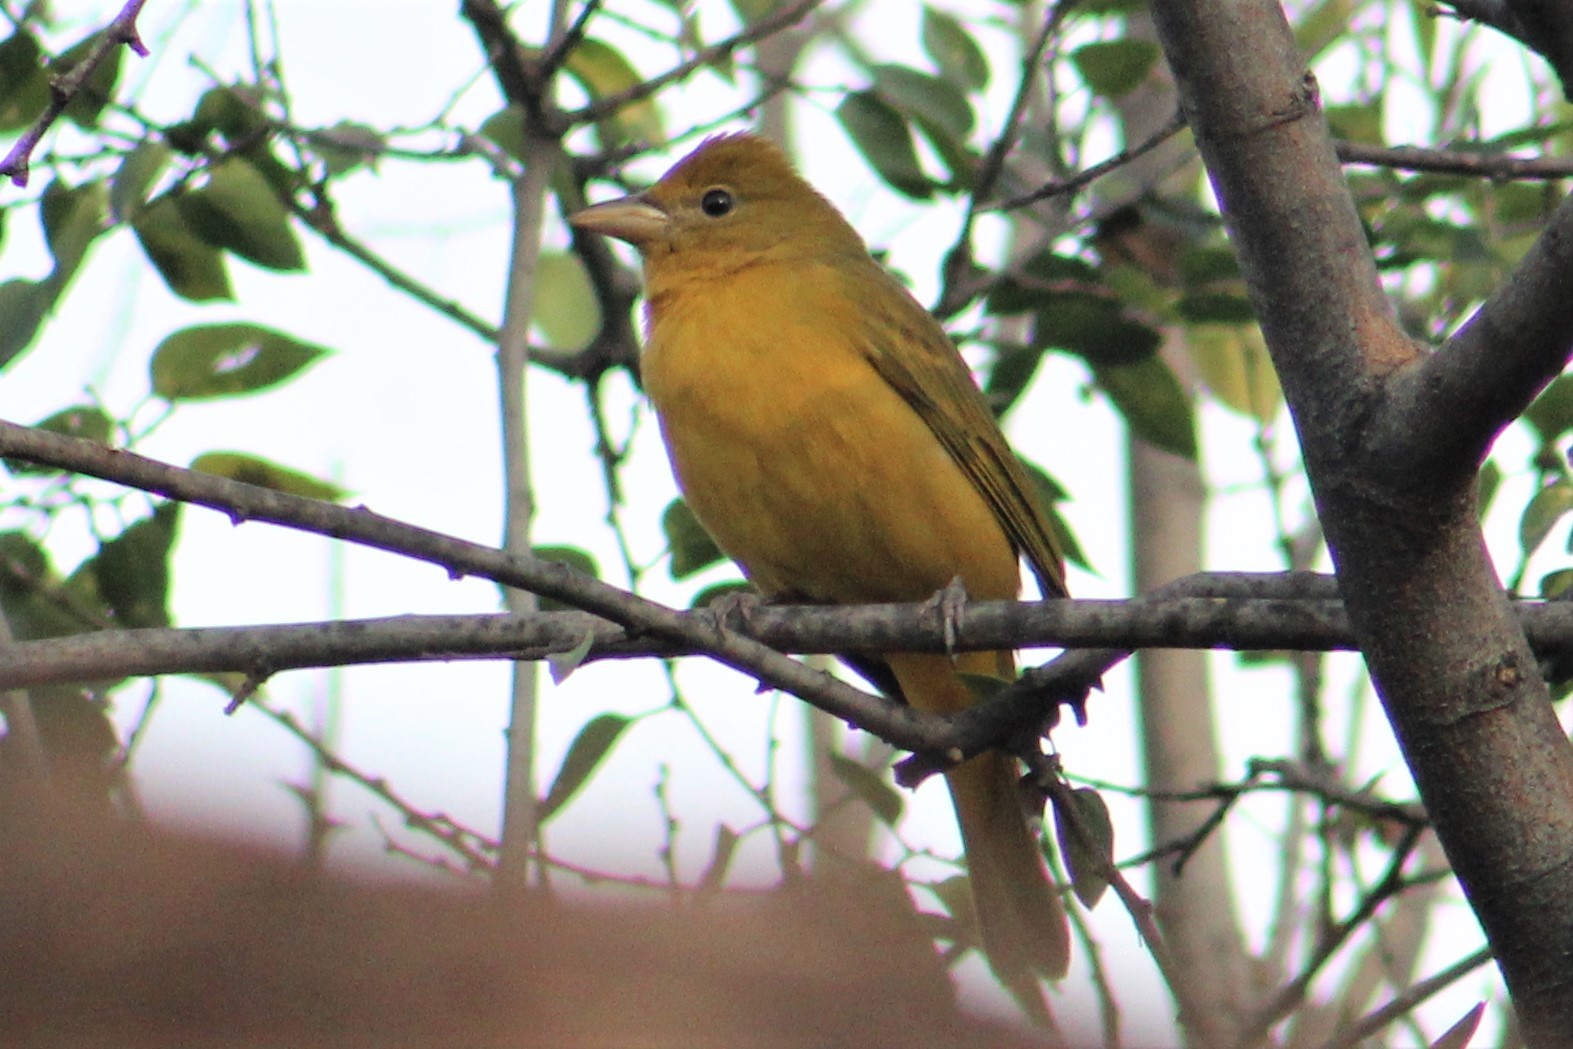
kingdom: Animalia
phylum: Chordata
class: Aves
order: Passeriformes
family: Cardinalidae
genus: Piranga
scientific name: Piranga rubra
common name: Summer tanager
